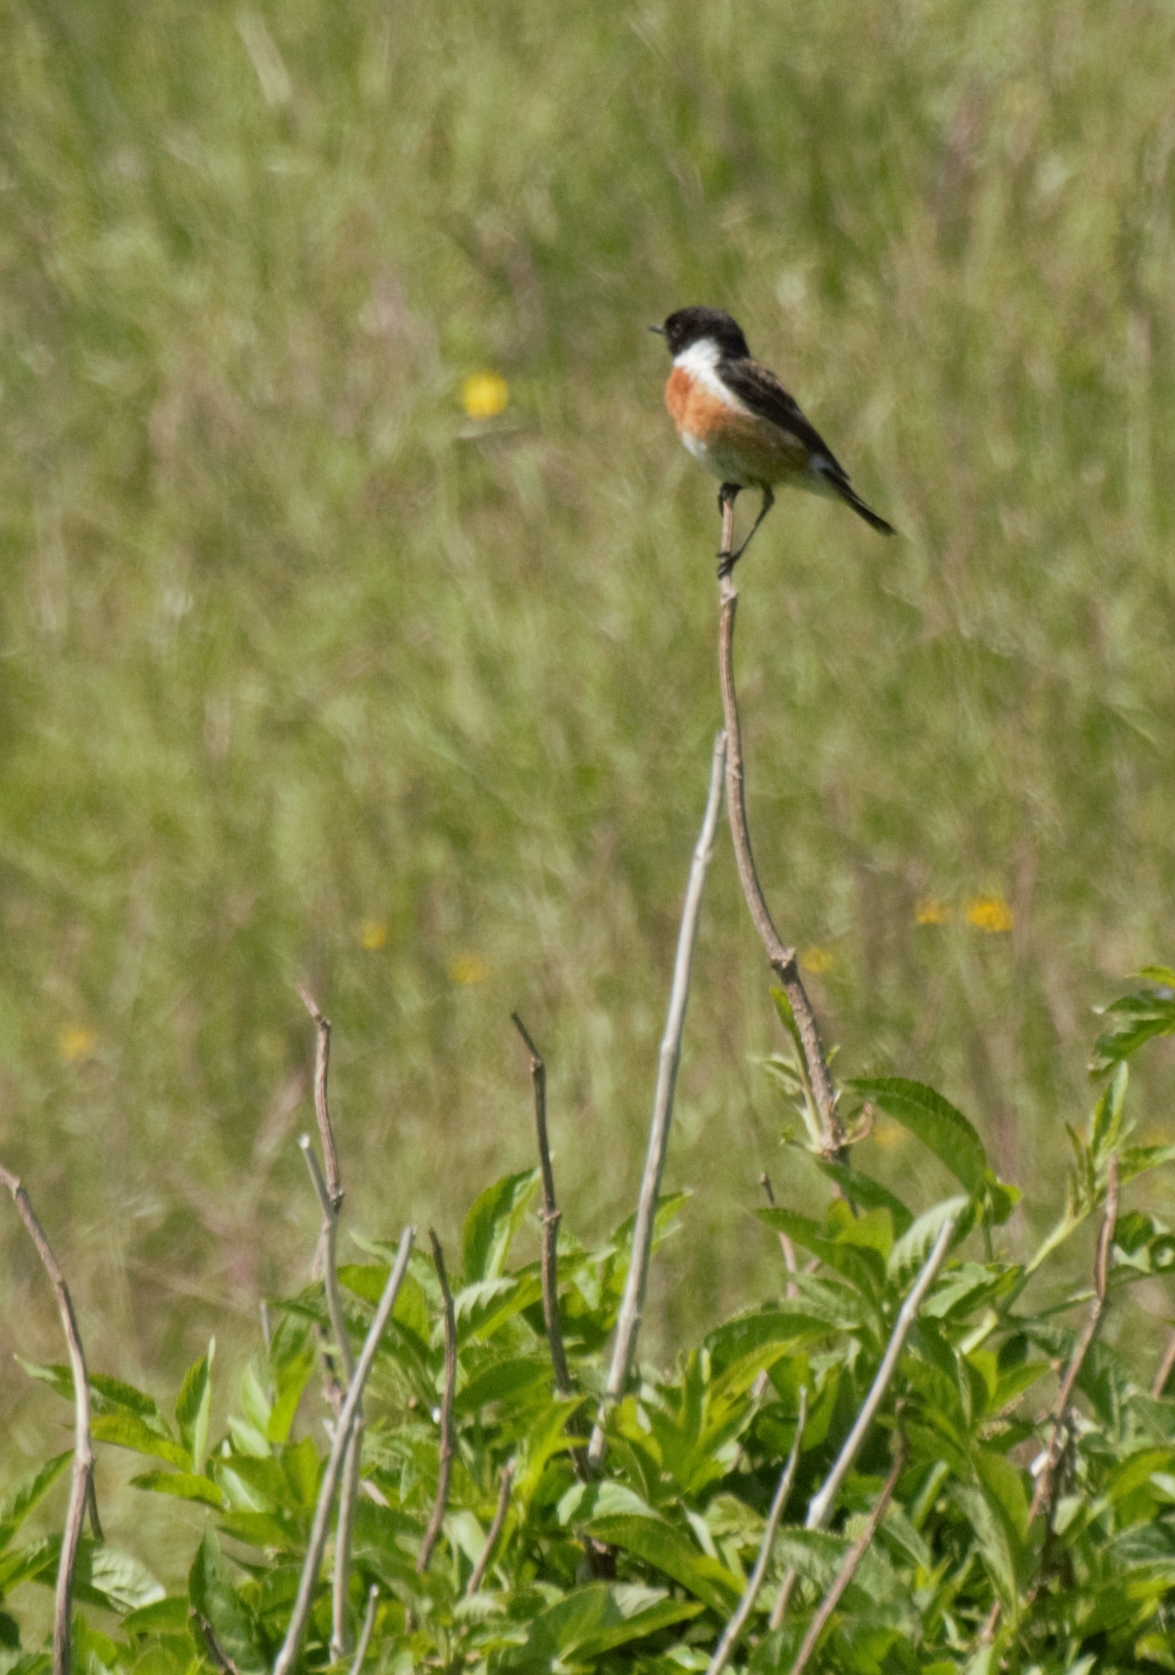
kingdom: Animalia
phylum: Chordata
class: Aves
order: Passeriformes
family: Muscicapidae
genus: Saxicola
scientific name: Saxicola rubicola
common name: European stonechat
